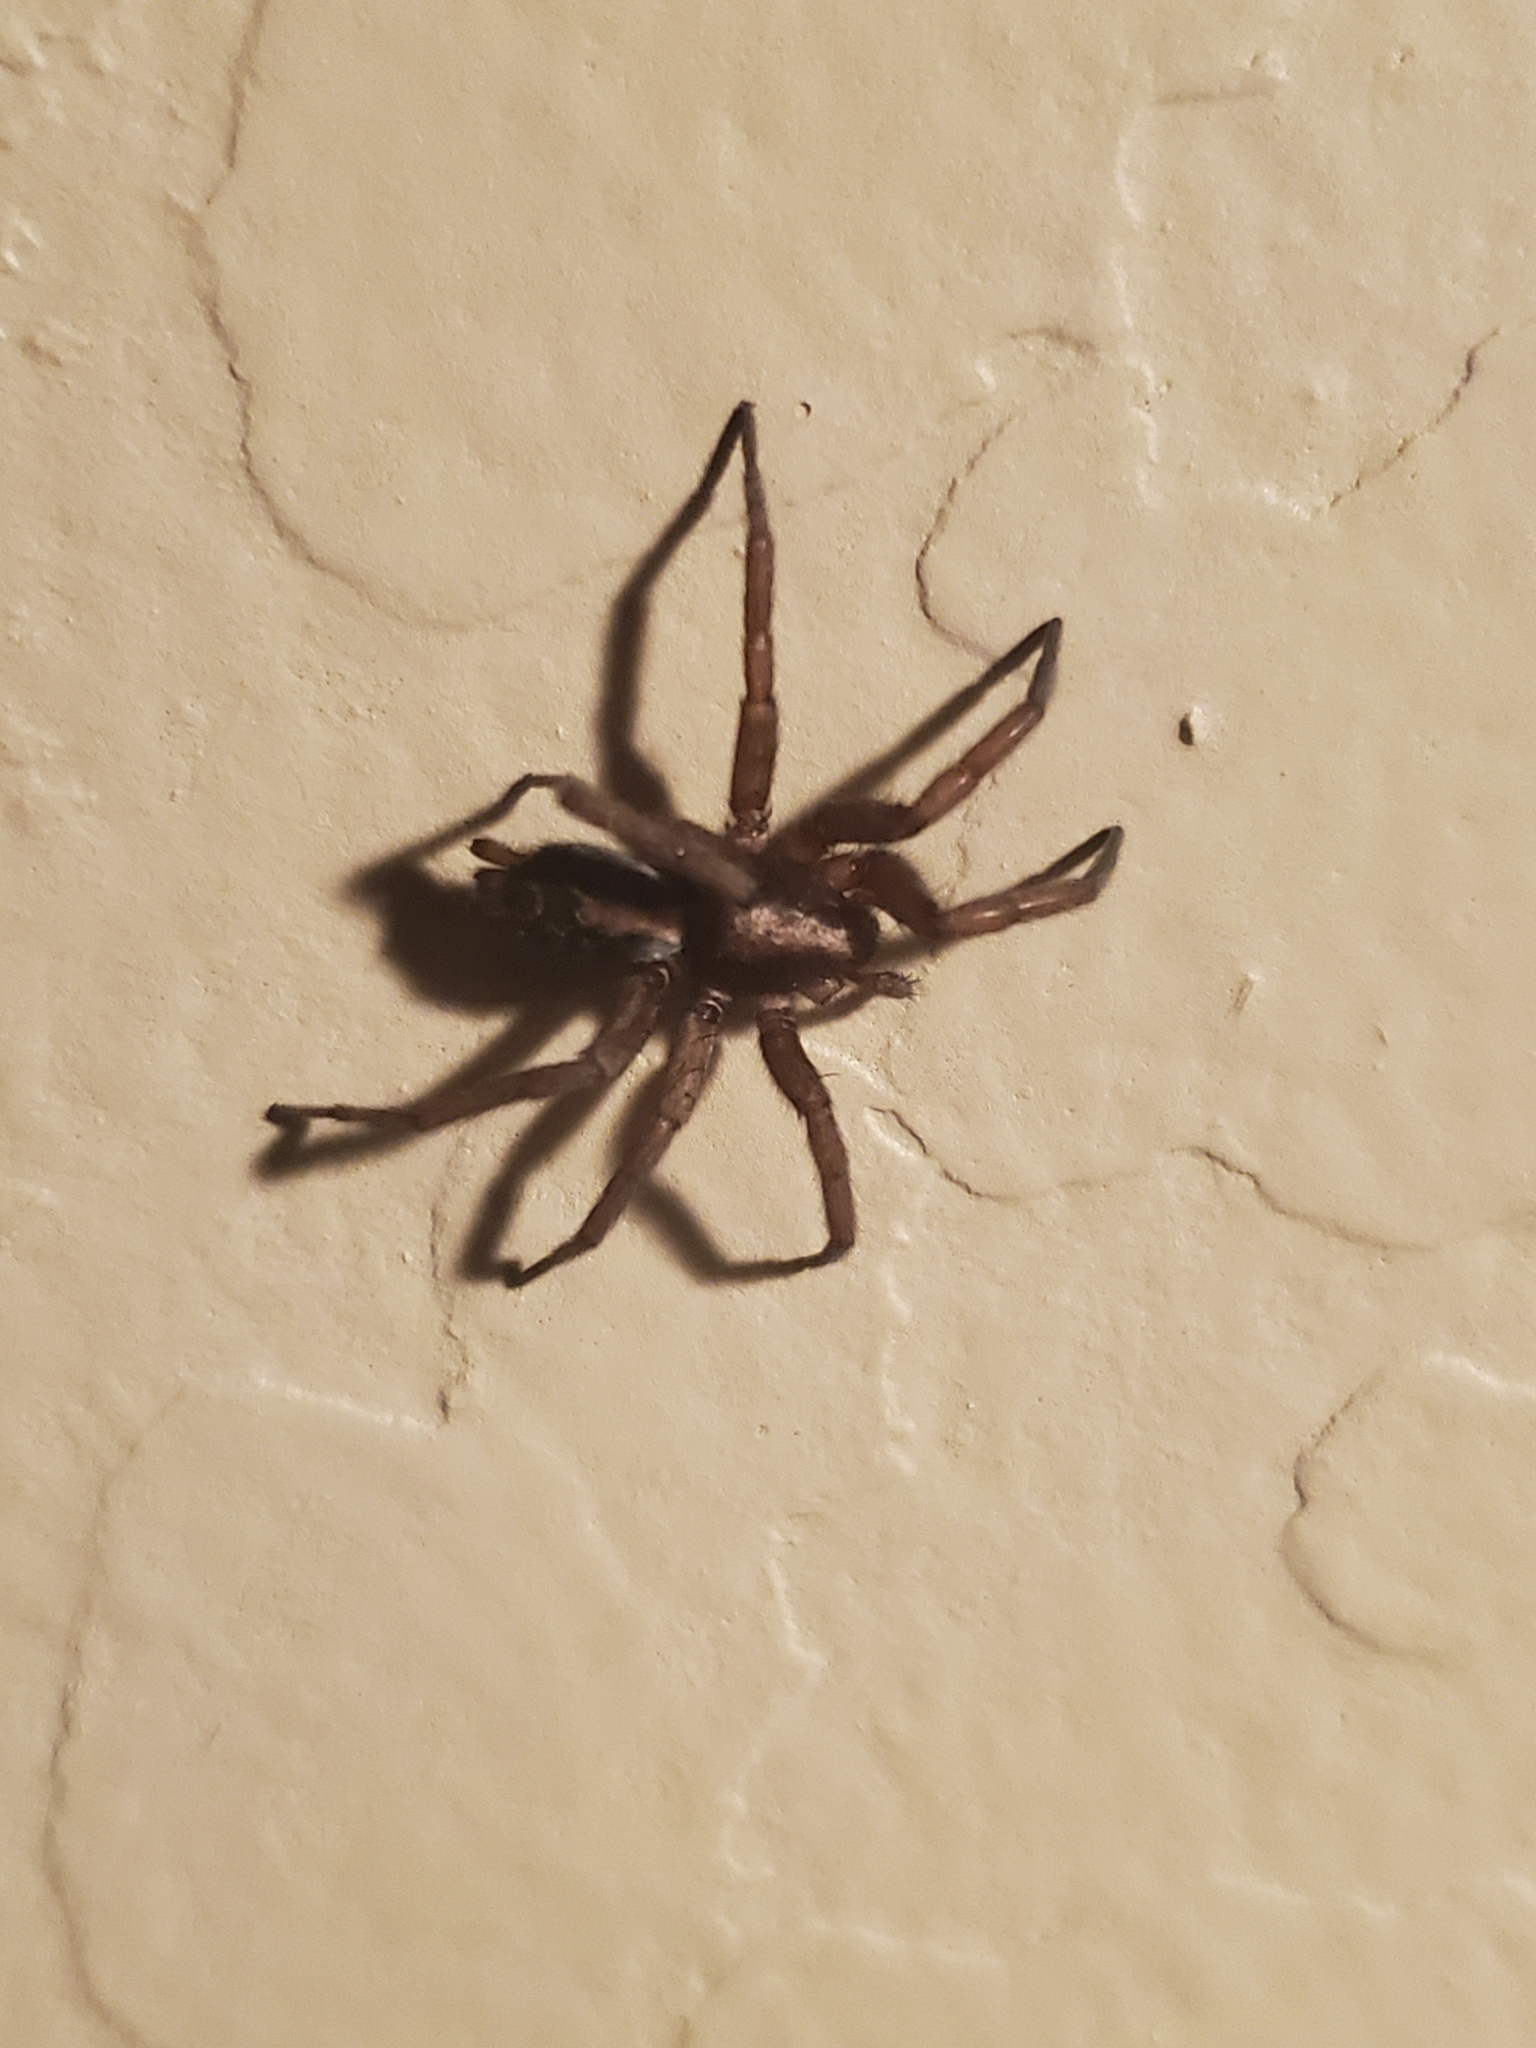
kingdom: Animalia
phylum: Arthropoda
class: Arachnida
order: Araneae
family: Gnaphosidae
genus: Herpyllus
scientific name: Herpyllus propinquus
